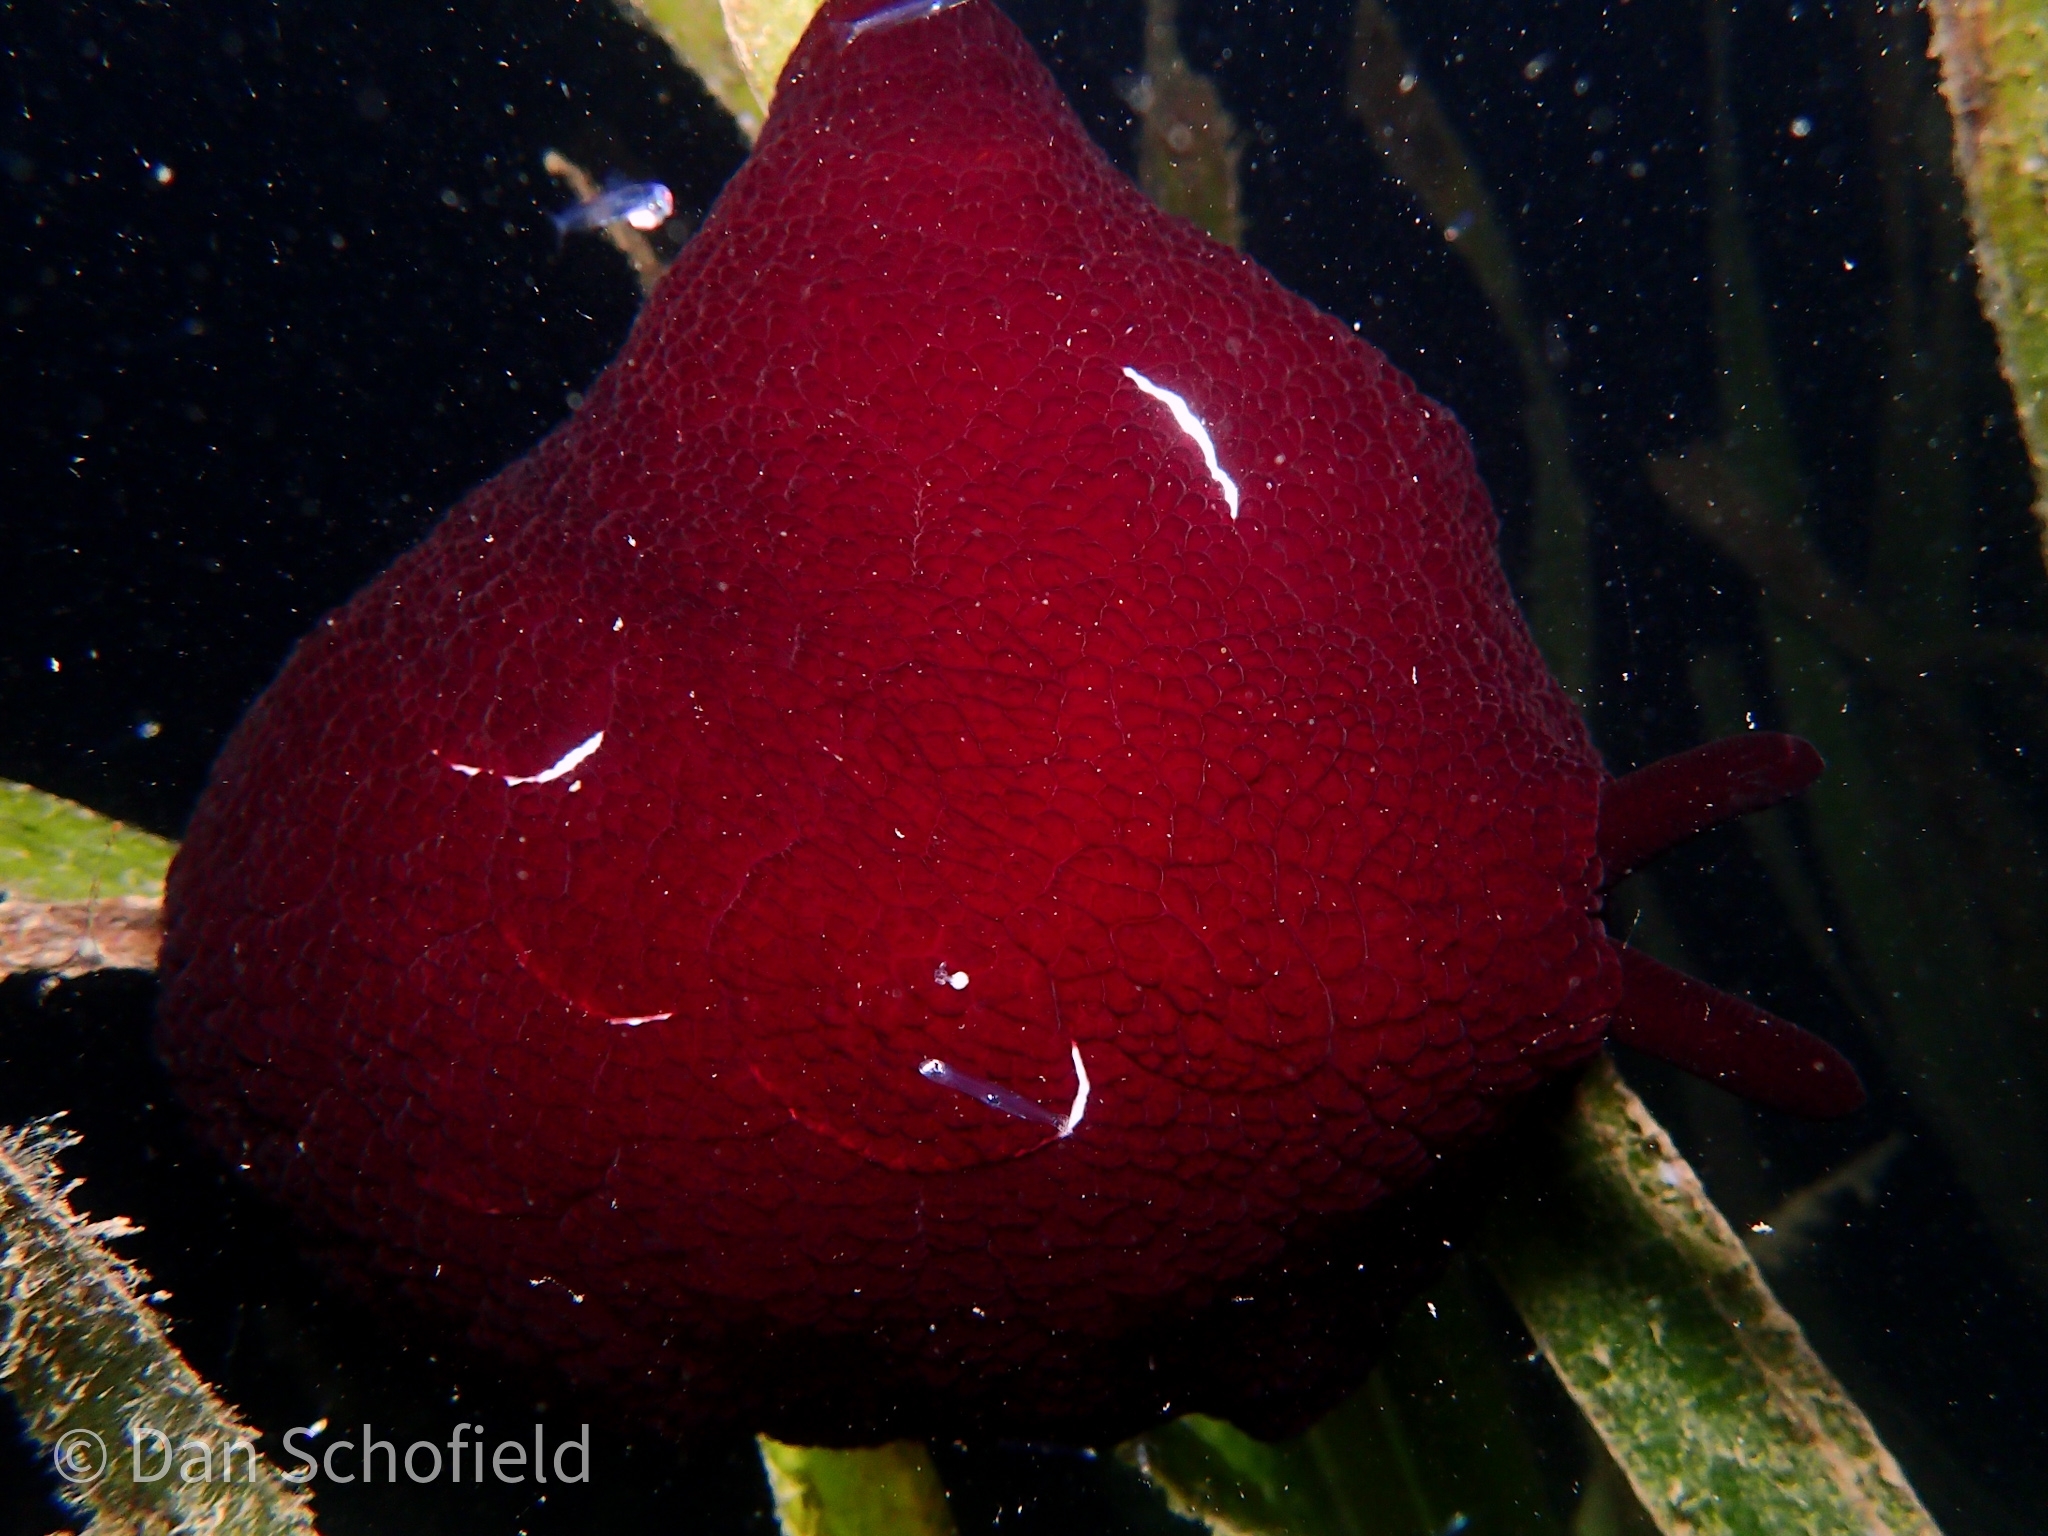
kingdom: Animalia
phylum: Mollusca
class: Gastropoda
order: Pleurobranchida
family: Pleurobranchidae
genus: Pleurobranchus
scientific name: Pleurobranchus forskalii
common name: Forskal's side-gilled sea slug
